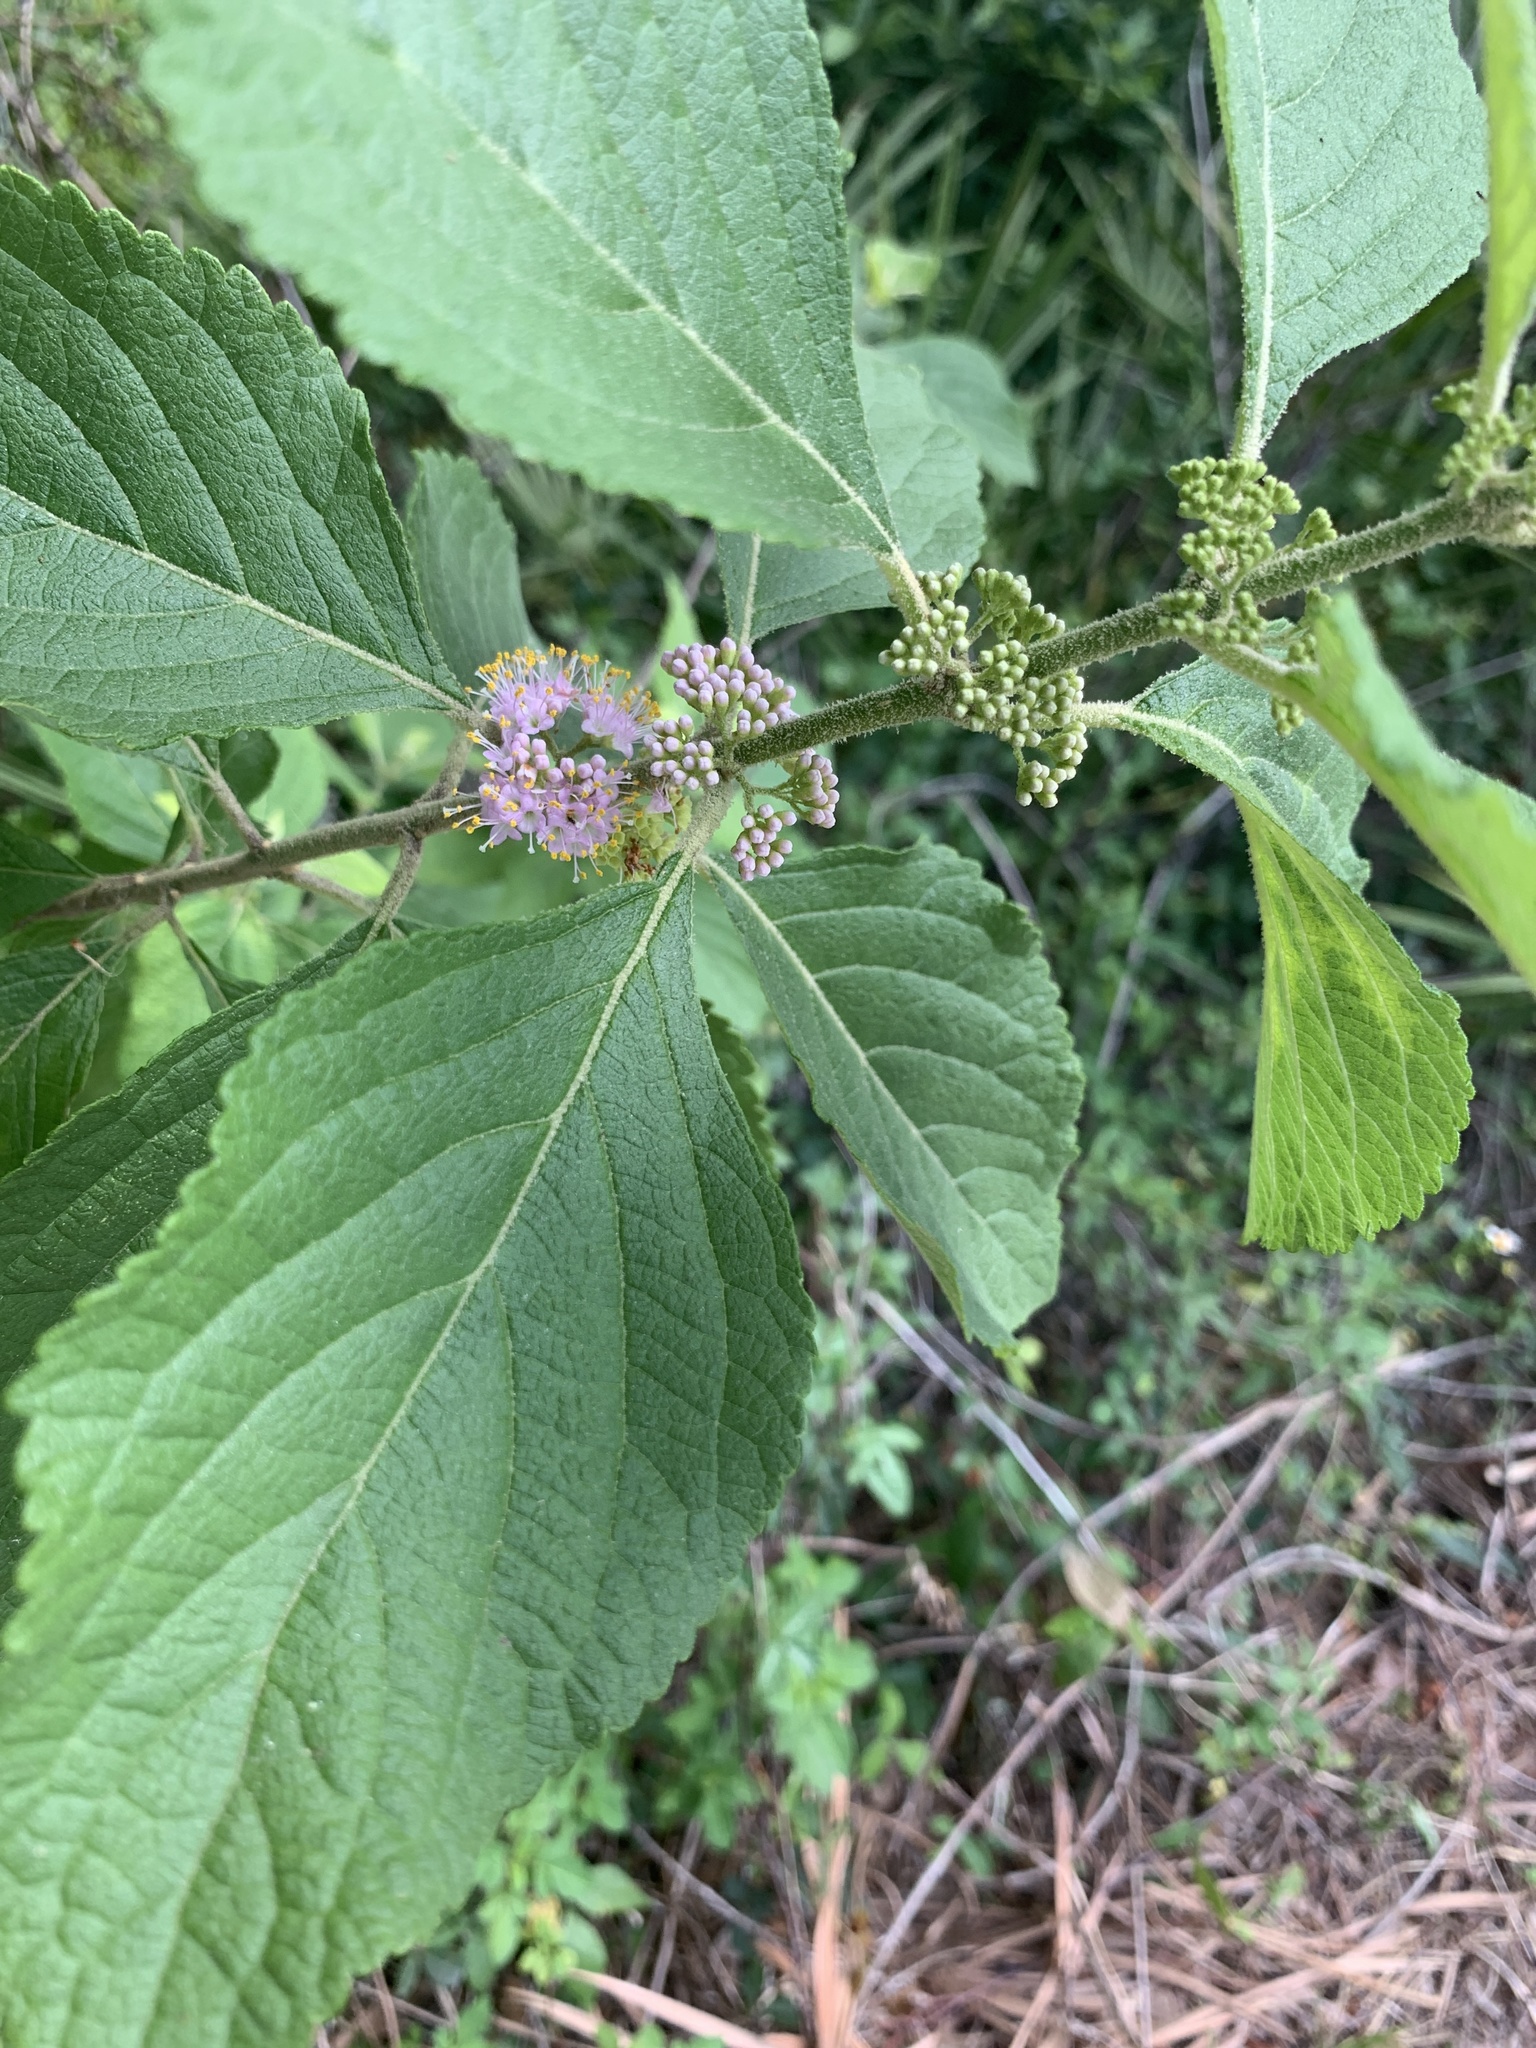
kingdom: Plantae
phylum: Tracheophyta
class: Magnoliopsida
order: Lamiales
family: Lamiaceae
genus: Callicarpa
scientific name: Callicarpa americana
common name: American beautyberry
